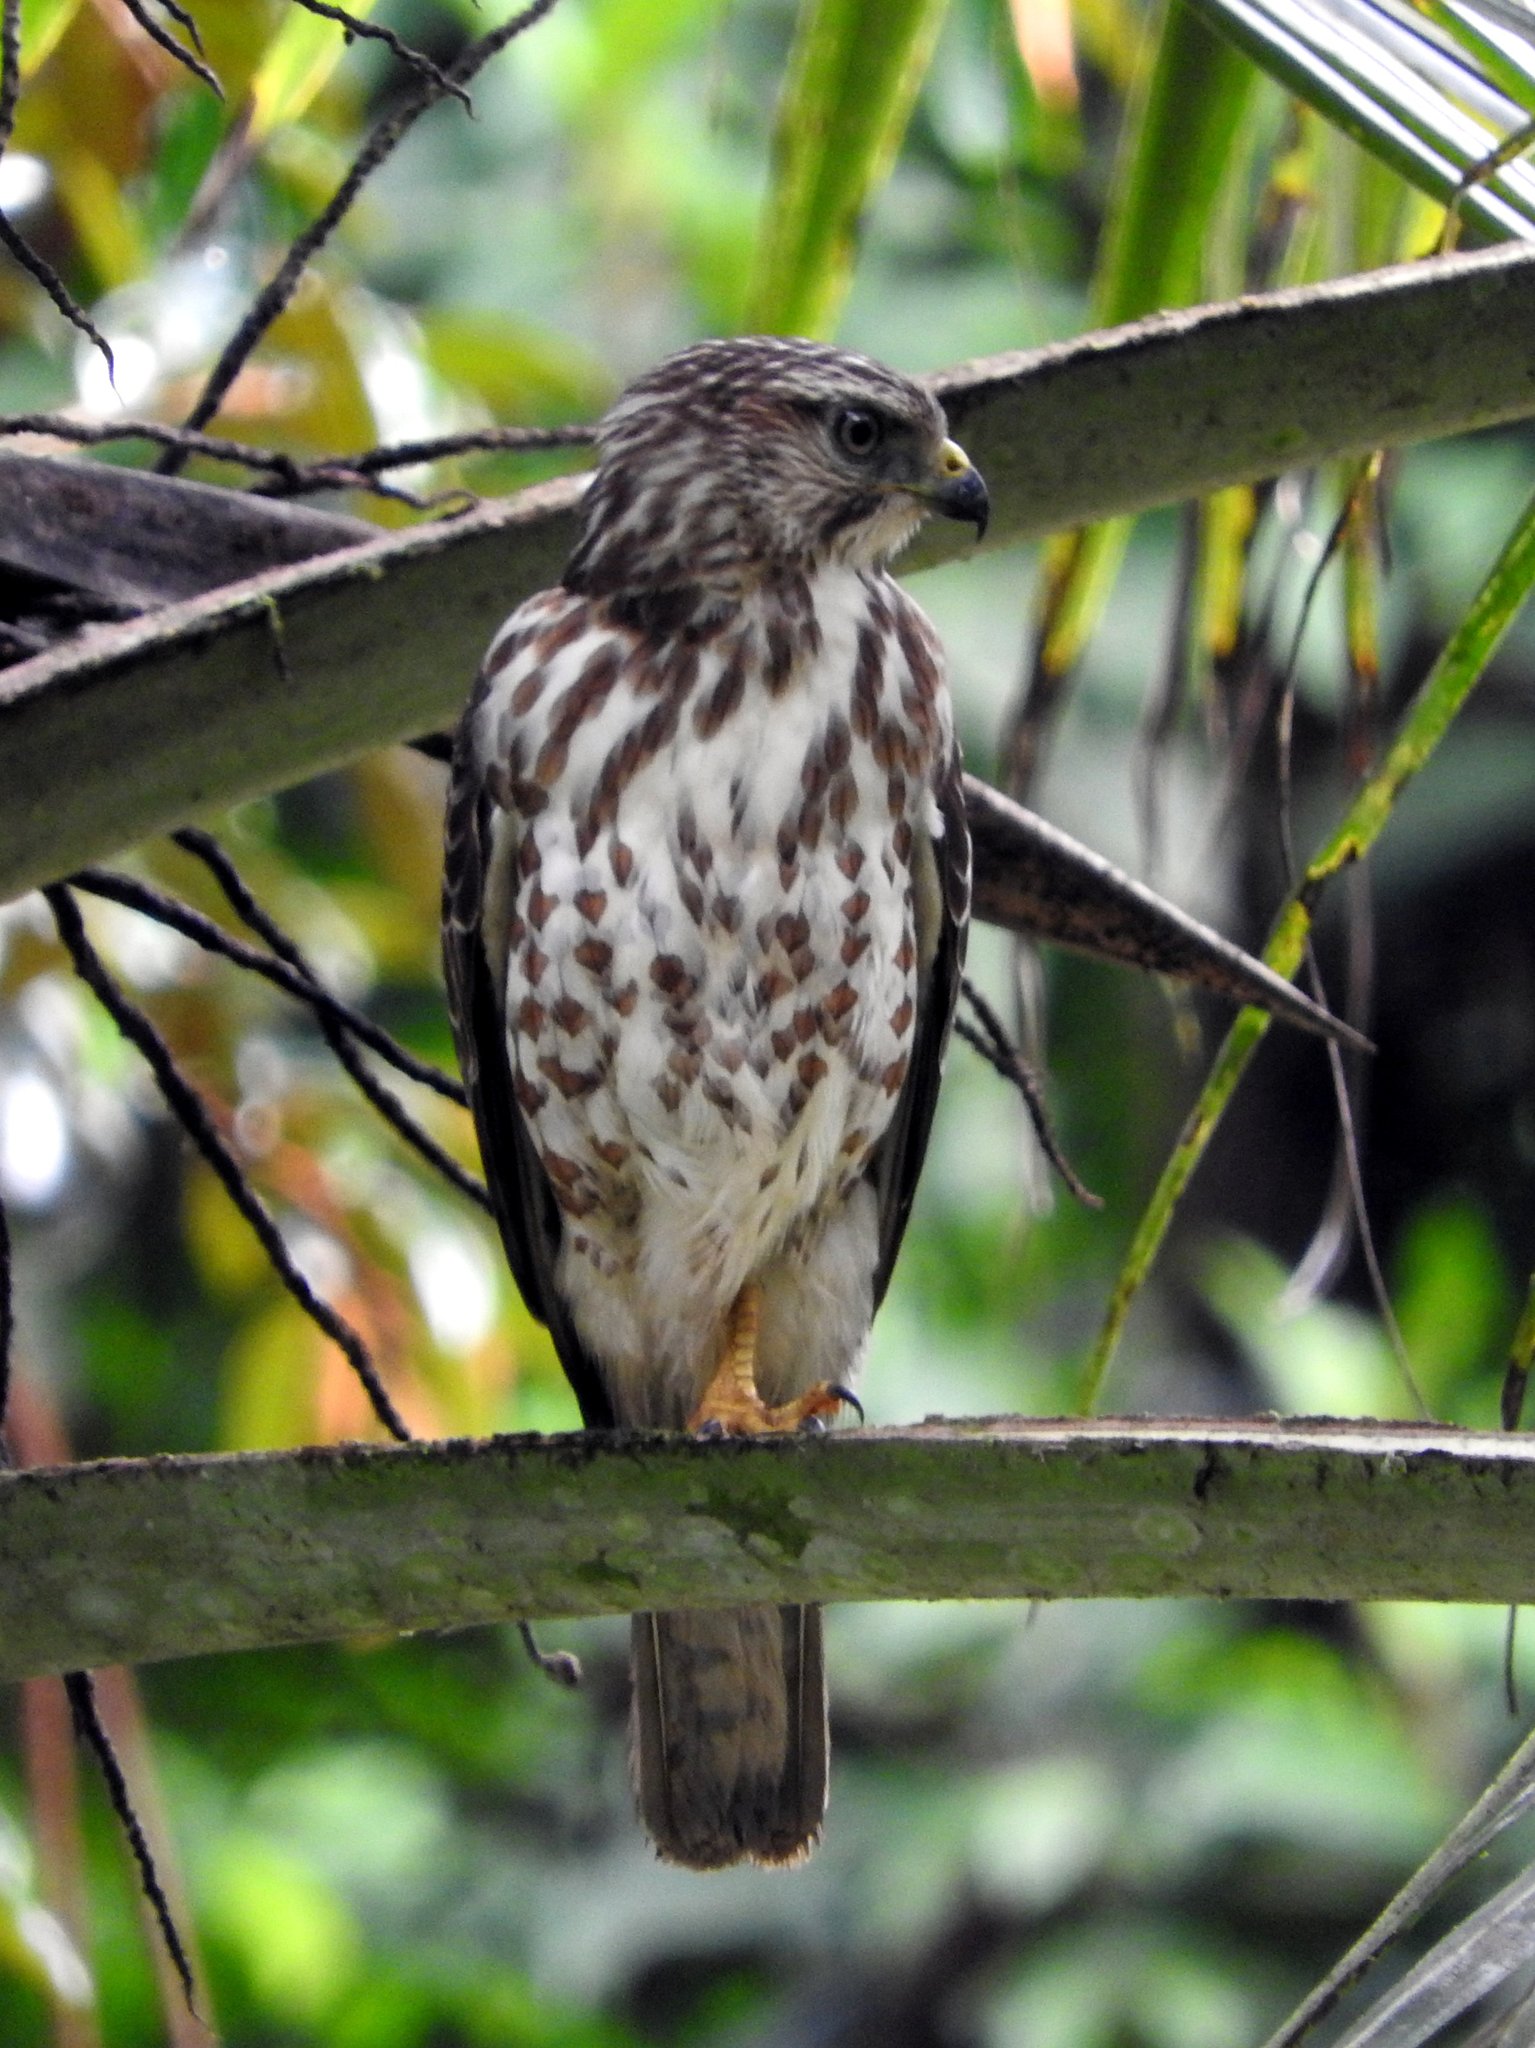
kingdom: Animalia
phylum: Chordata
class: Aves
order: Accipitriformes
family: Accipitridae
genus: Buteo
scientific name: Buteo platypterus
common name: Broad-winged hawk
